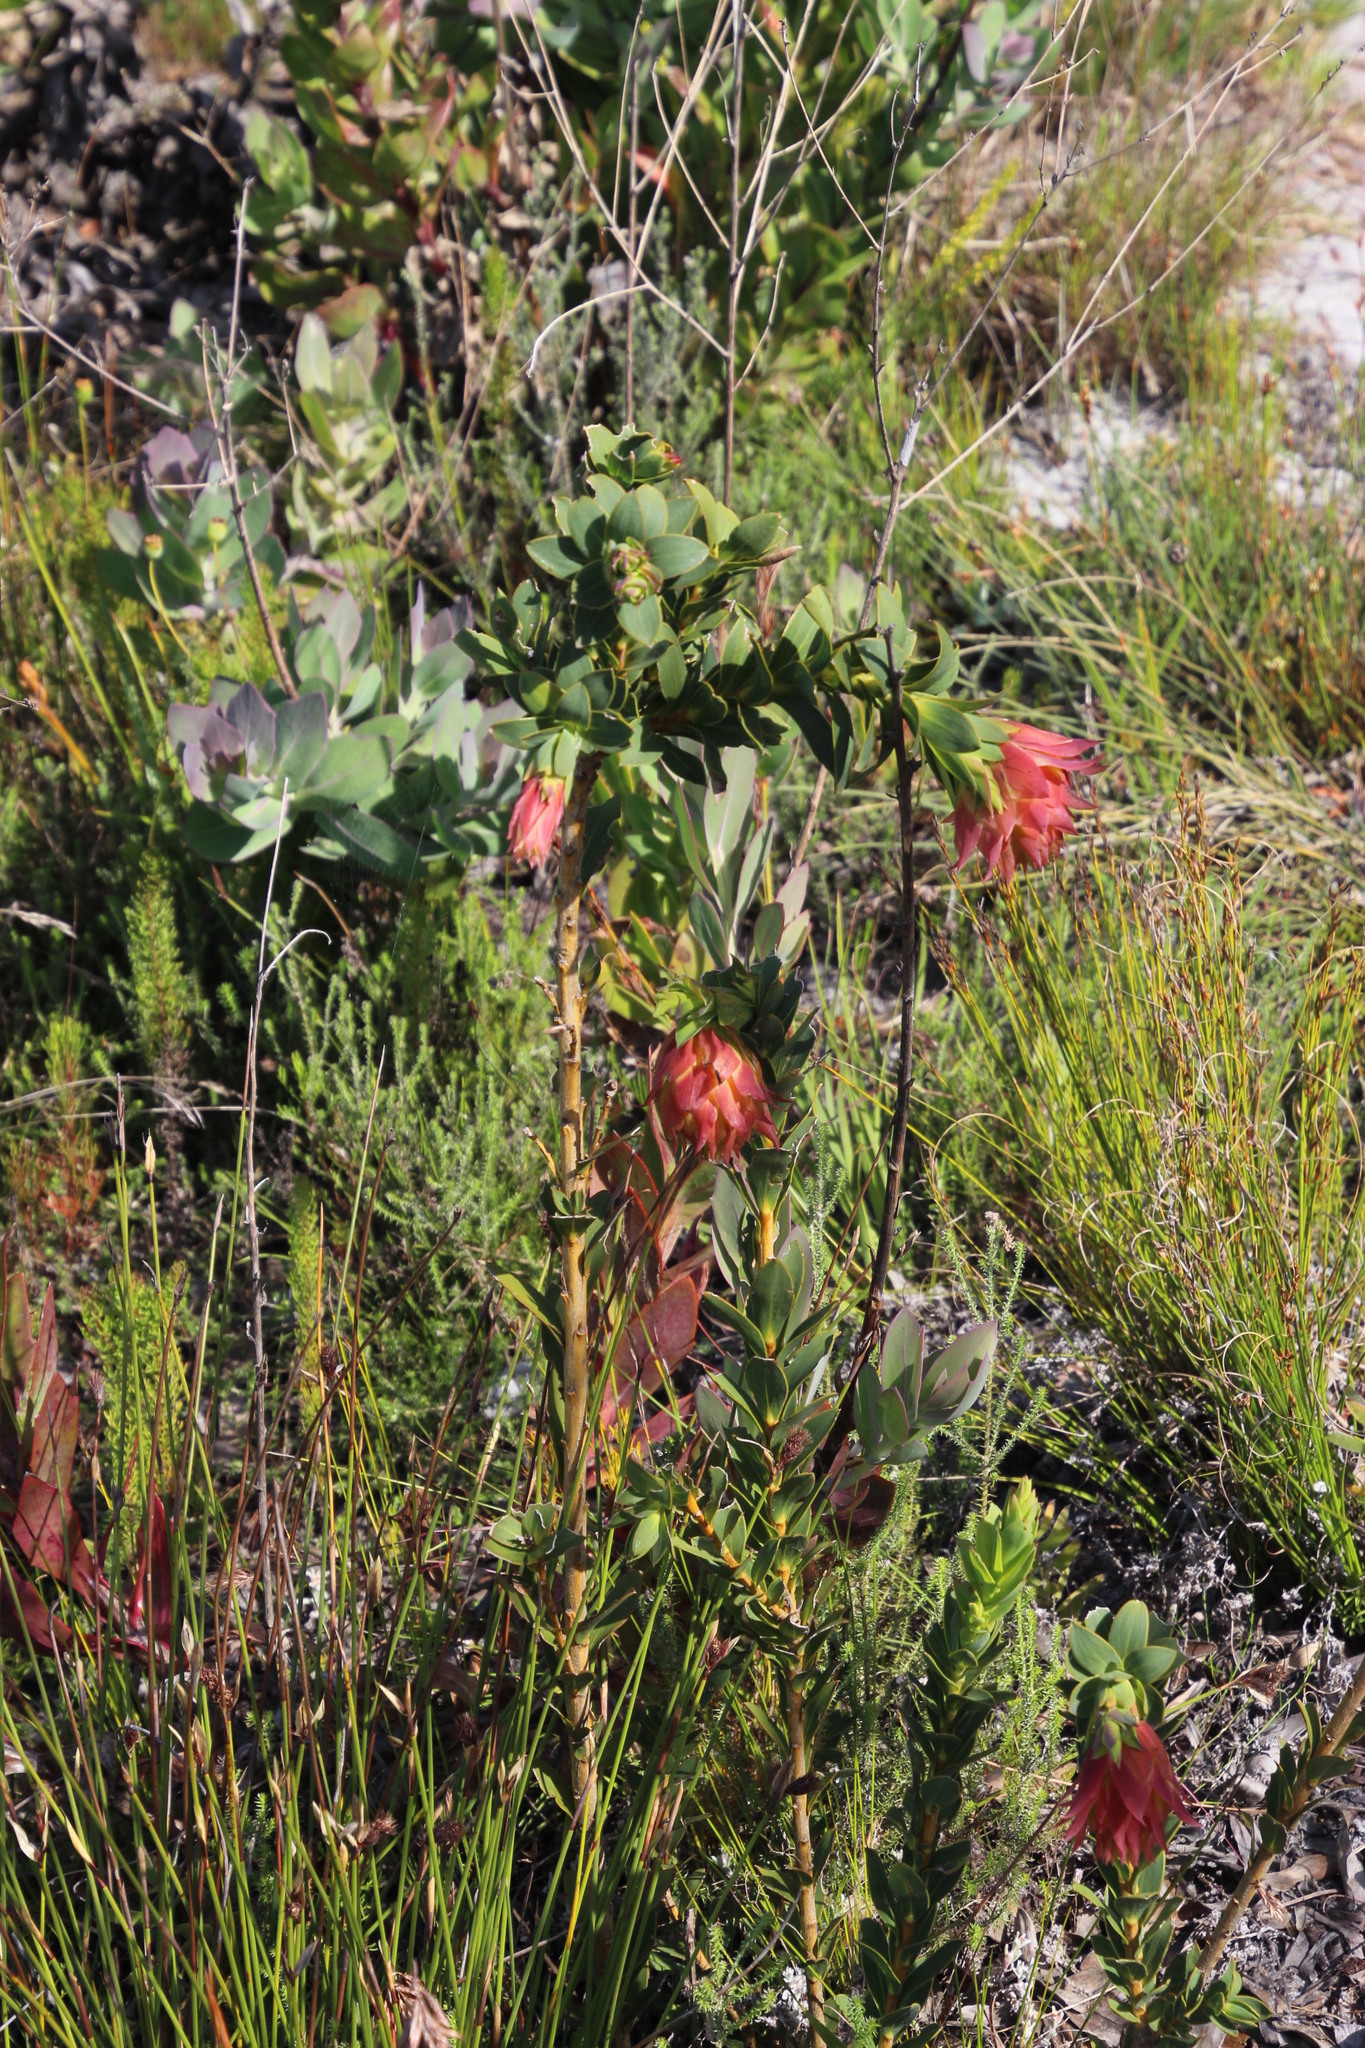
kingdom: Plantae
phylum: Tracheophyta
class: Magnoliopsida
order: Fabales
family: Fabaceae
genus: Liparia
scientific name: Liparia splendens
